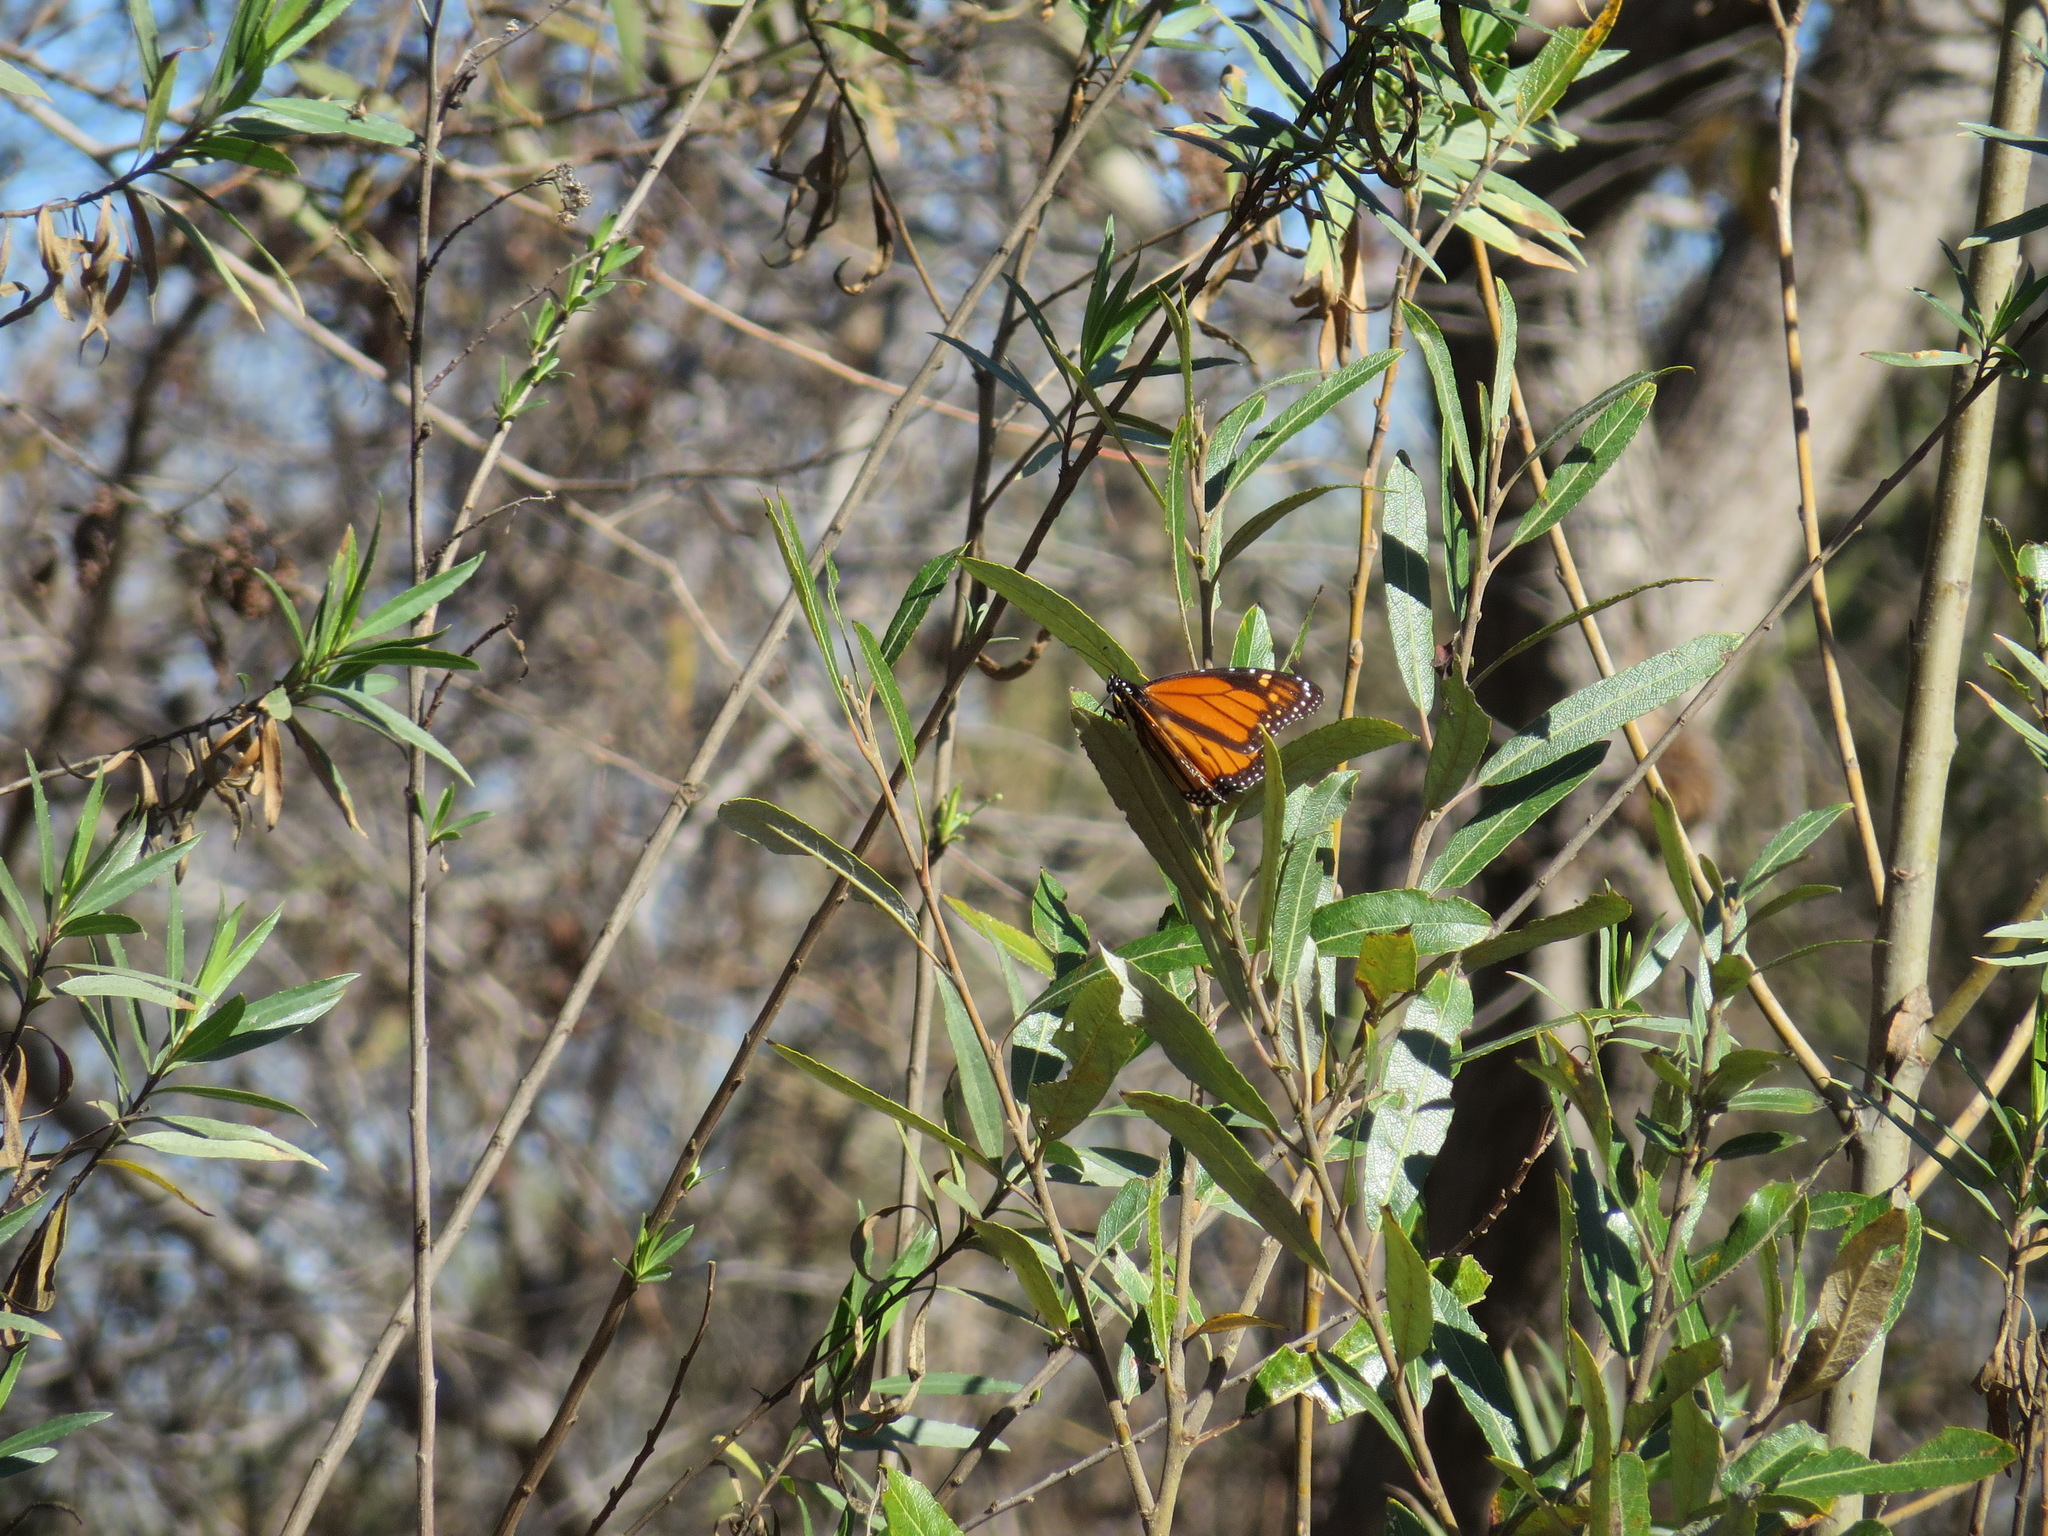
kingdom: Animalia
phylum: Arthropoda
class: Insecta
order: Lepidoptera
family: Nymphalidae
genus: Danaus
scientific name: Danaus plexippus
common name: Monarch
